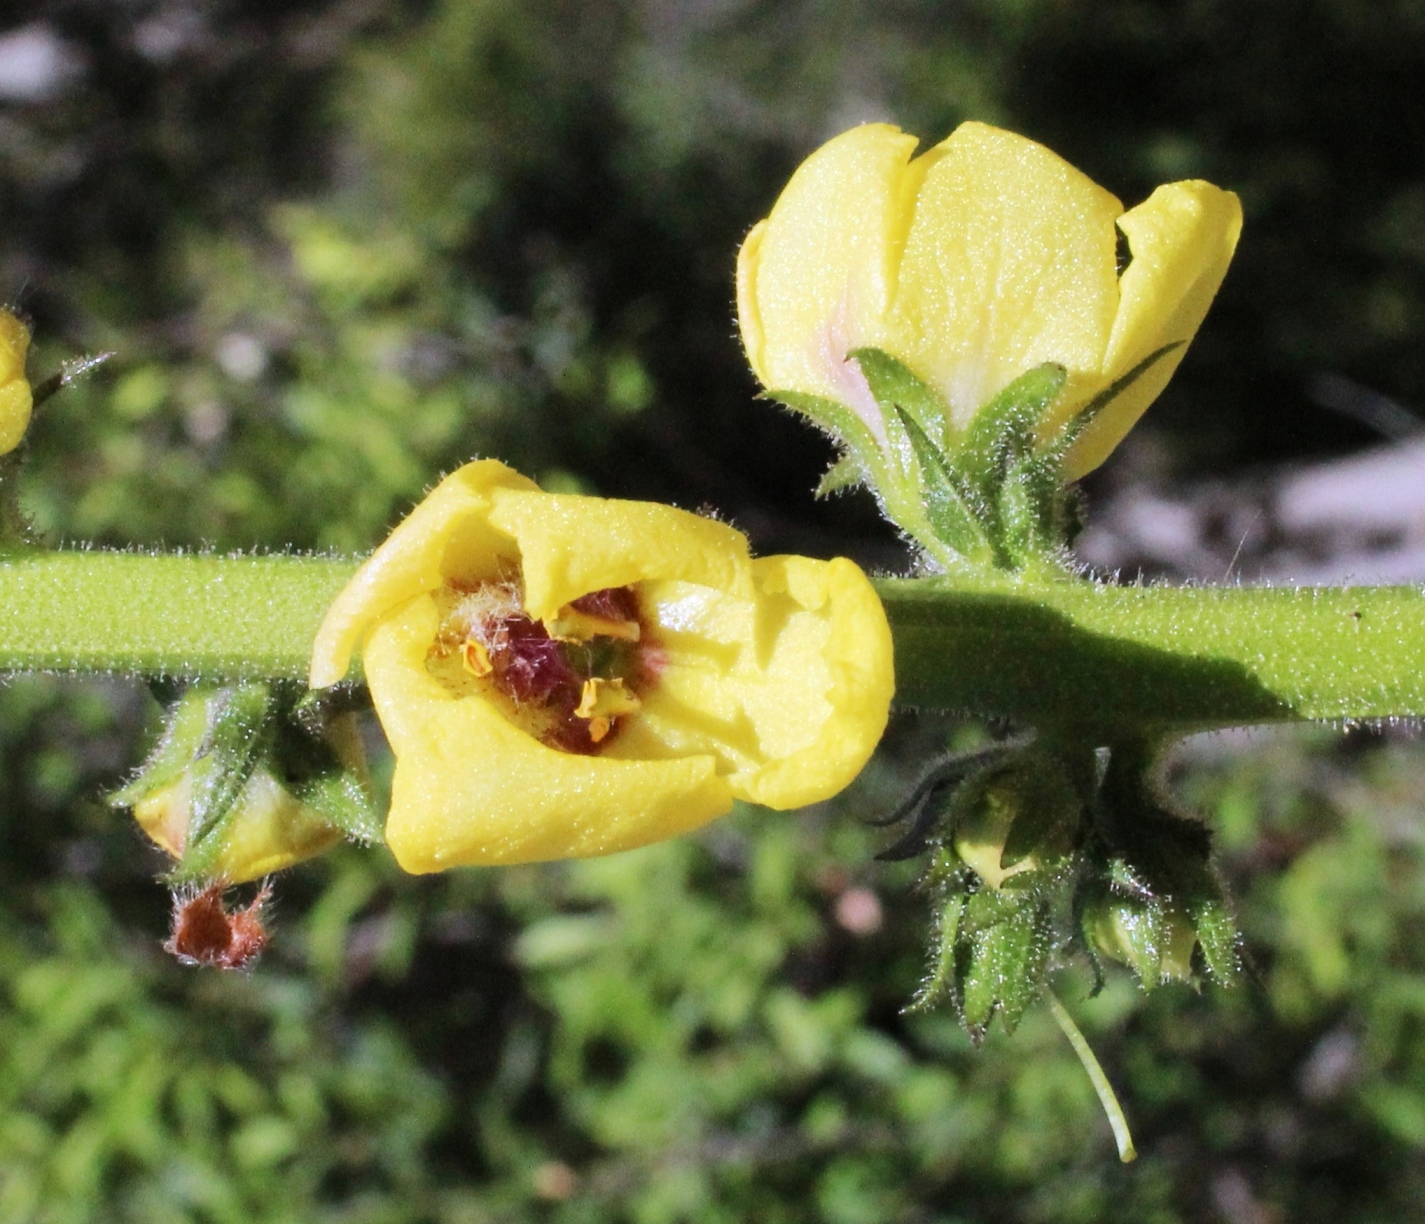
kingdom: Plantae
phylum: Tracheophyta
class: Magnoliopsida
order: Lamiales
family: Scrophulariaceae
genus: Verbascum
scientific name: Verbascum virgatum
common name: Twiggy mullein
